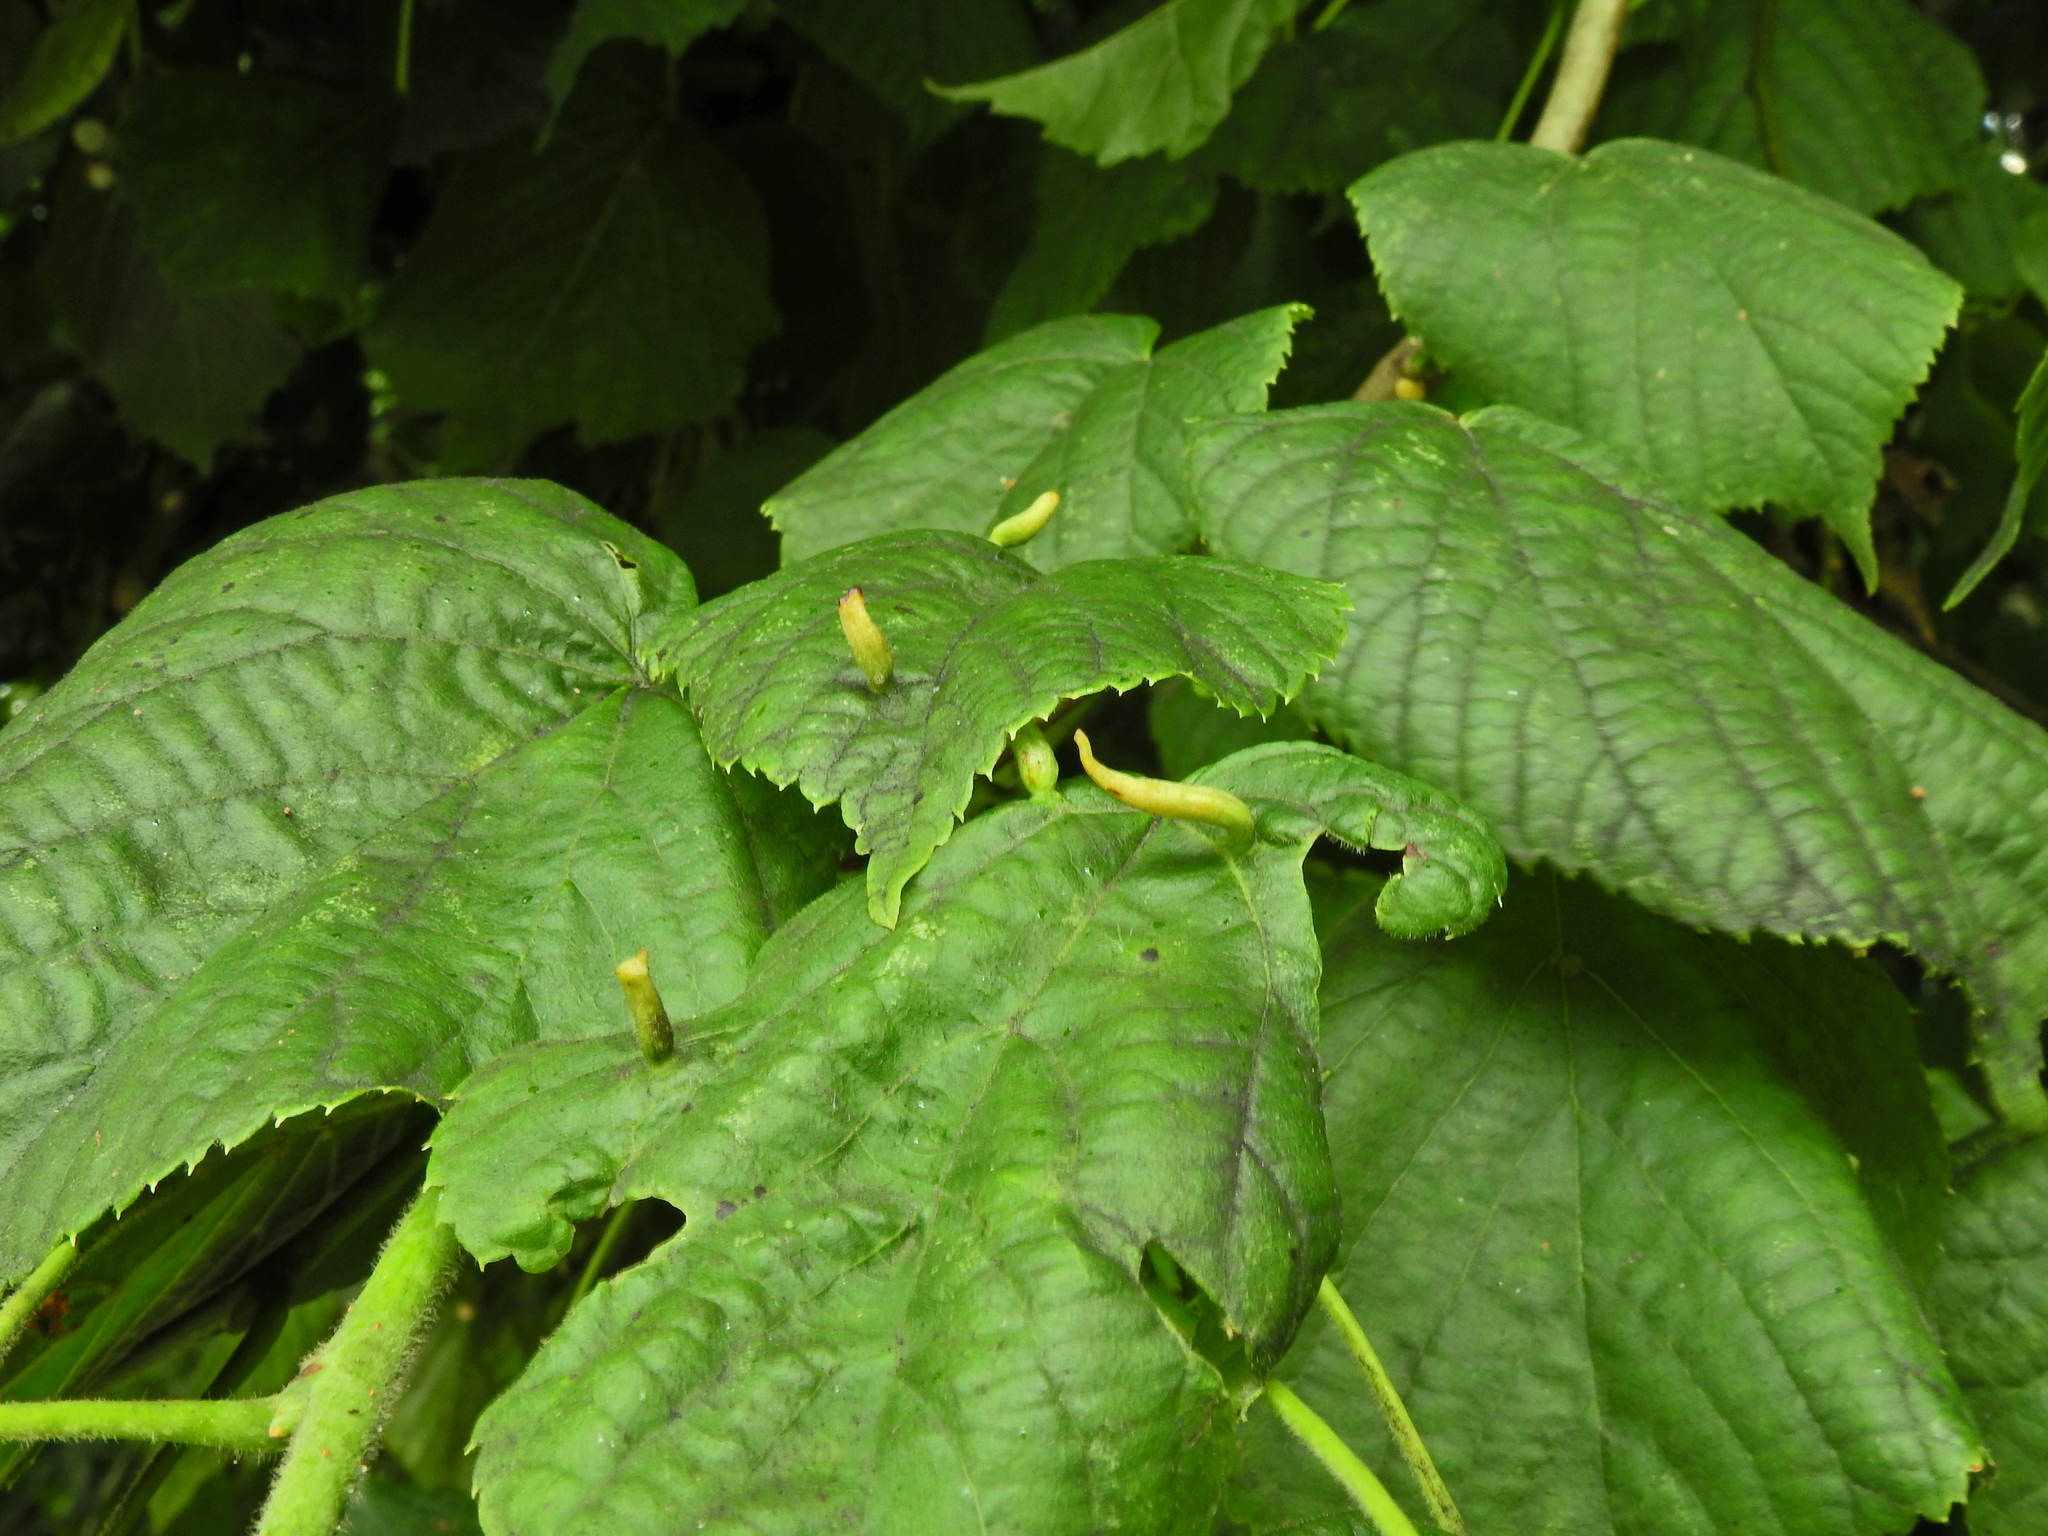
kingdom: Animalia
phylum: Arthropoda
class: Arachnida
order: Trombidiformes
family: Eriophyidae
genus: Eriophyes
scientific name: Eriophyes tiliae
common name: Red nail gall mite
